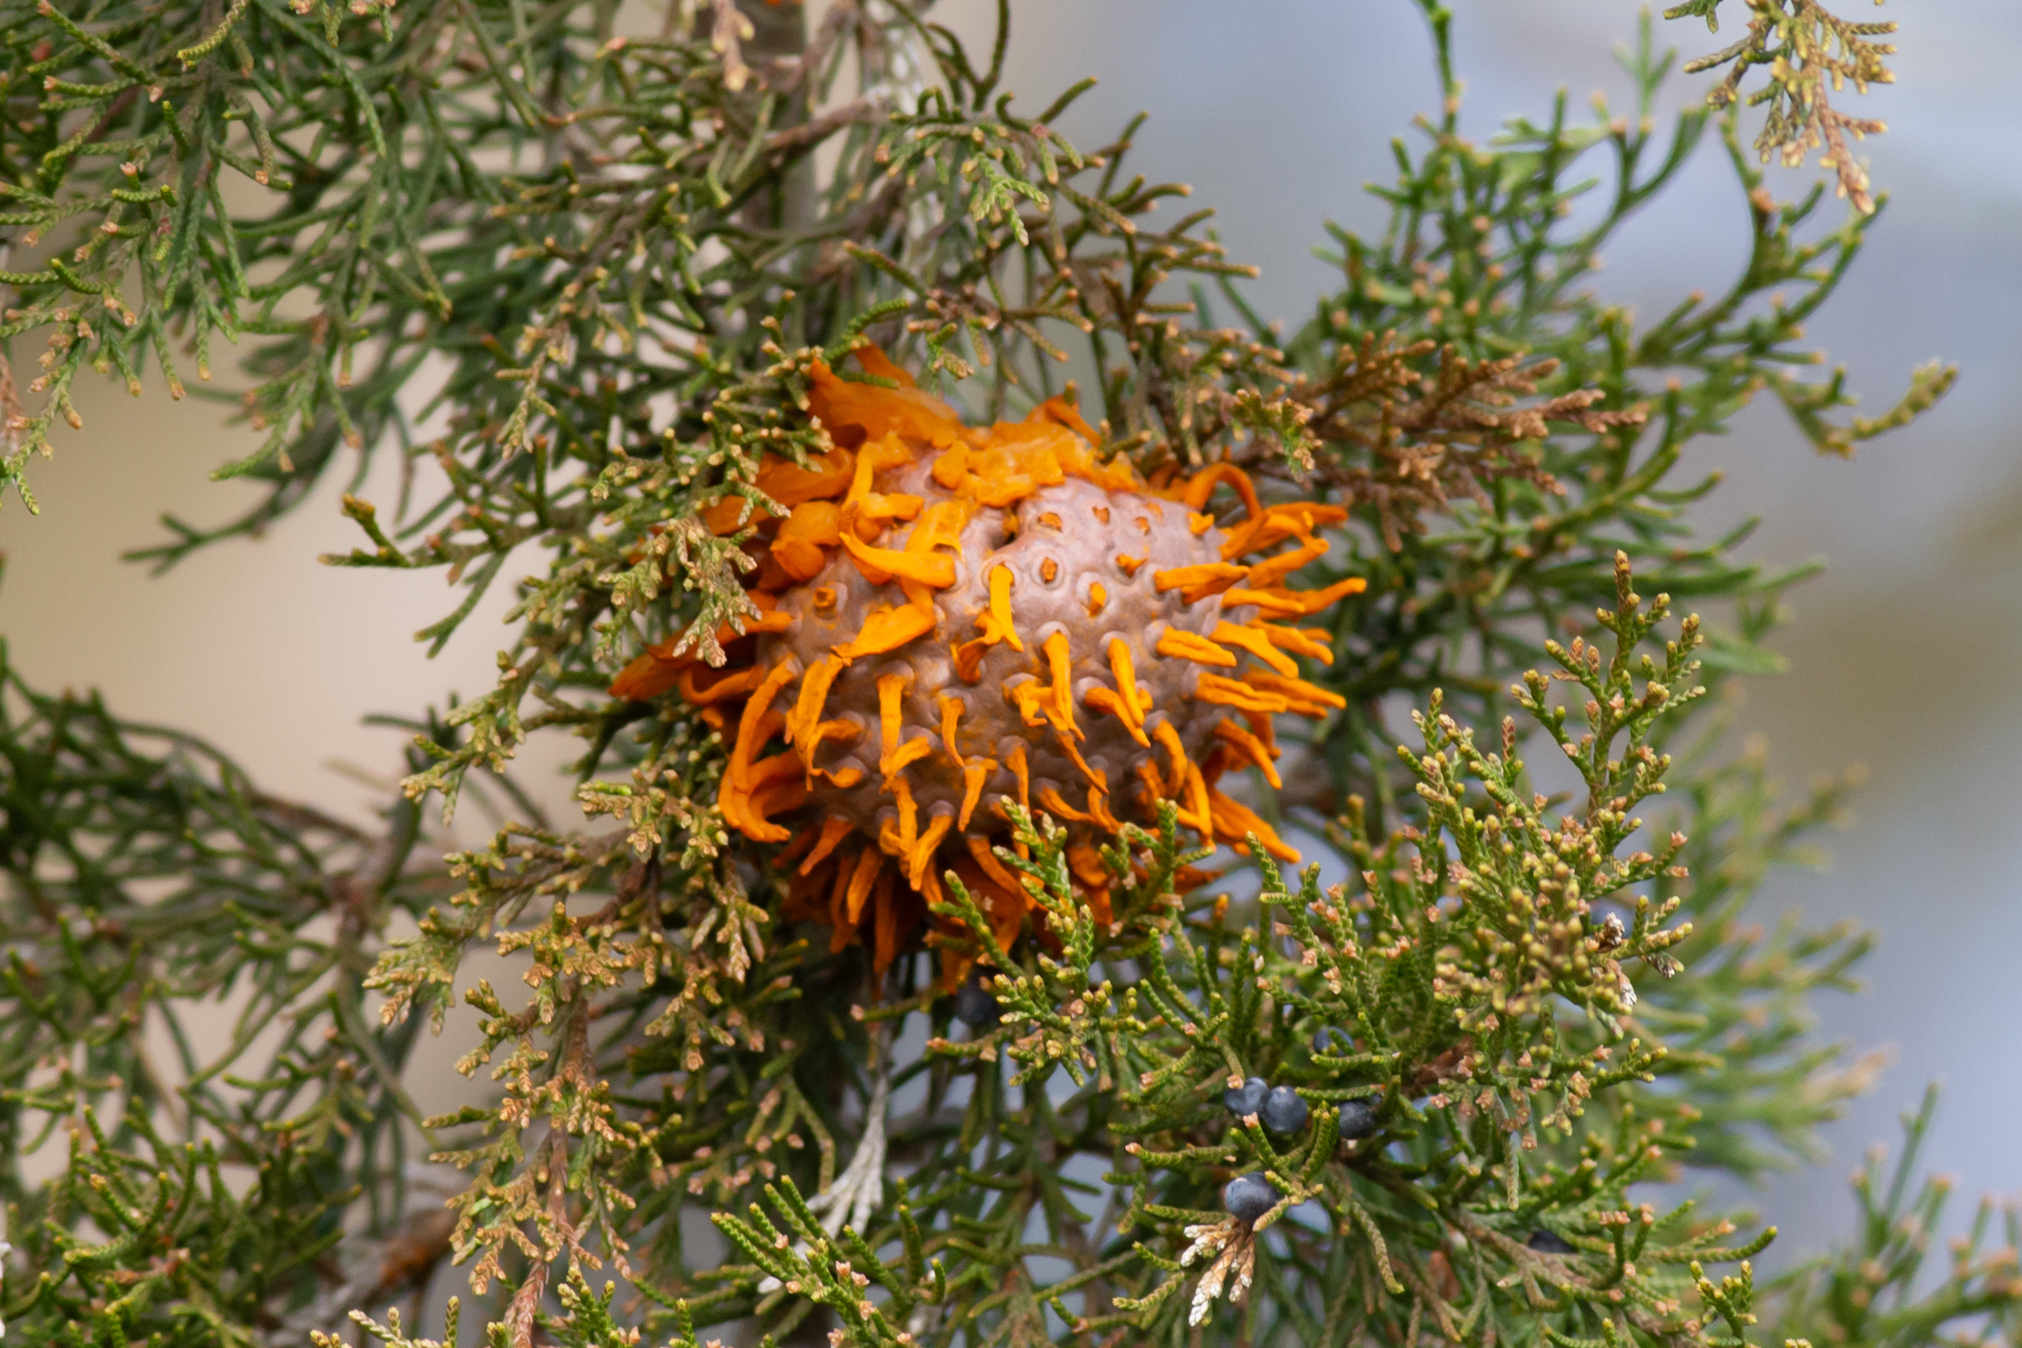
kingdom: Fungi
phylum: Basidiomycota
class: Pucciniomycetes
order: Pucciniales
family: Gymnosporangiaceae
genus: Gymnosporangium
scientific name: Gymnosporangium juniperi-virginianae
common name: Juniper-apple rust
